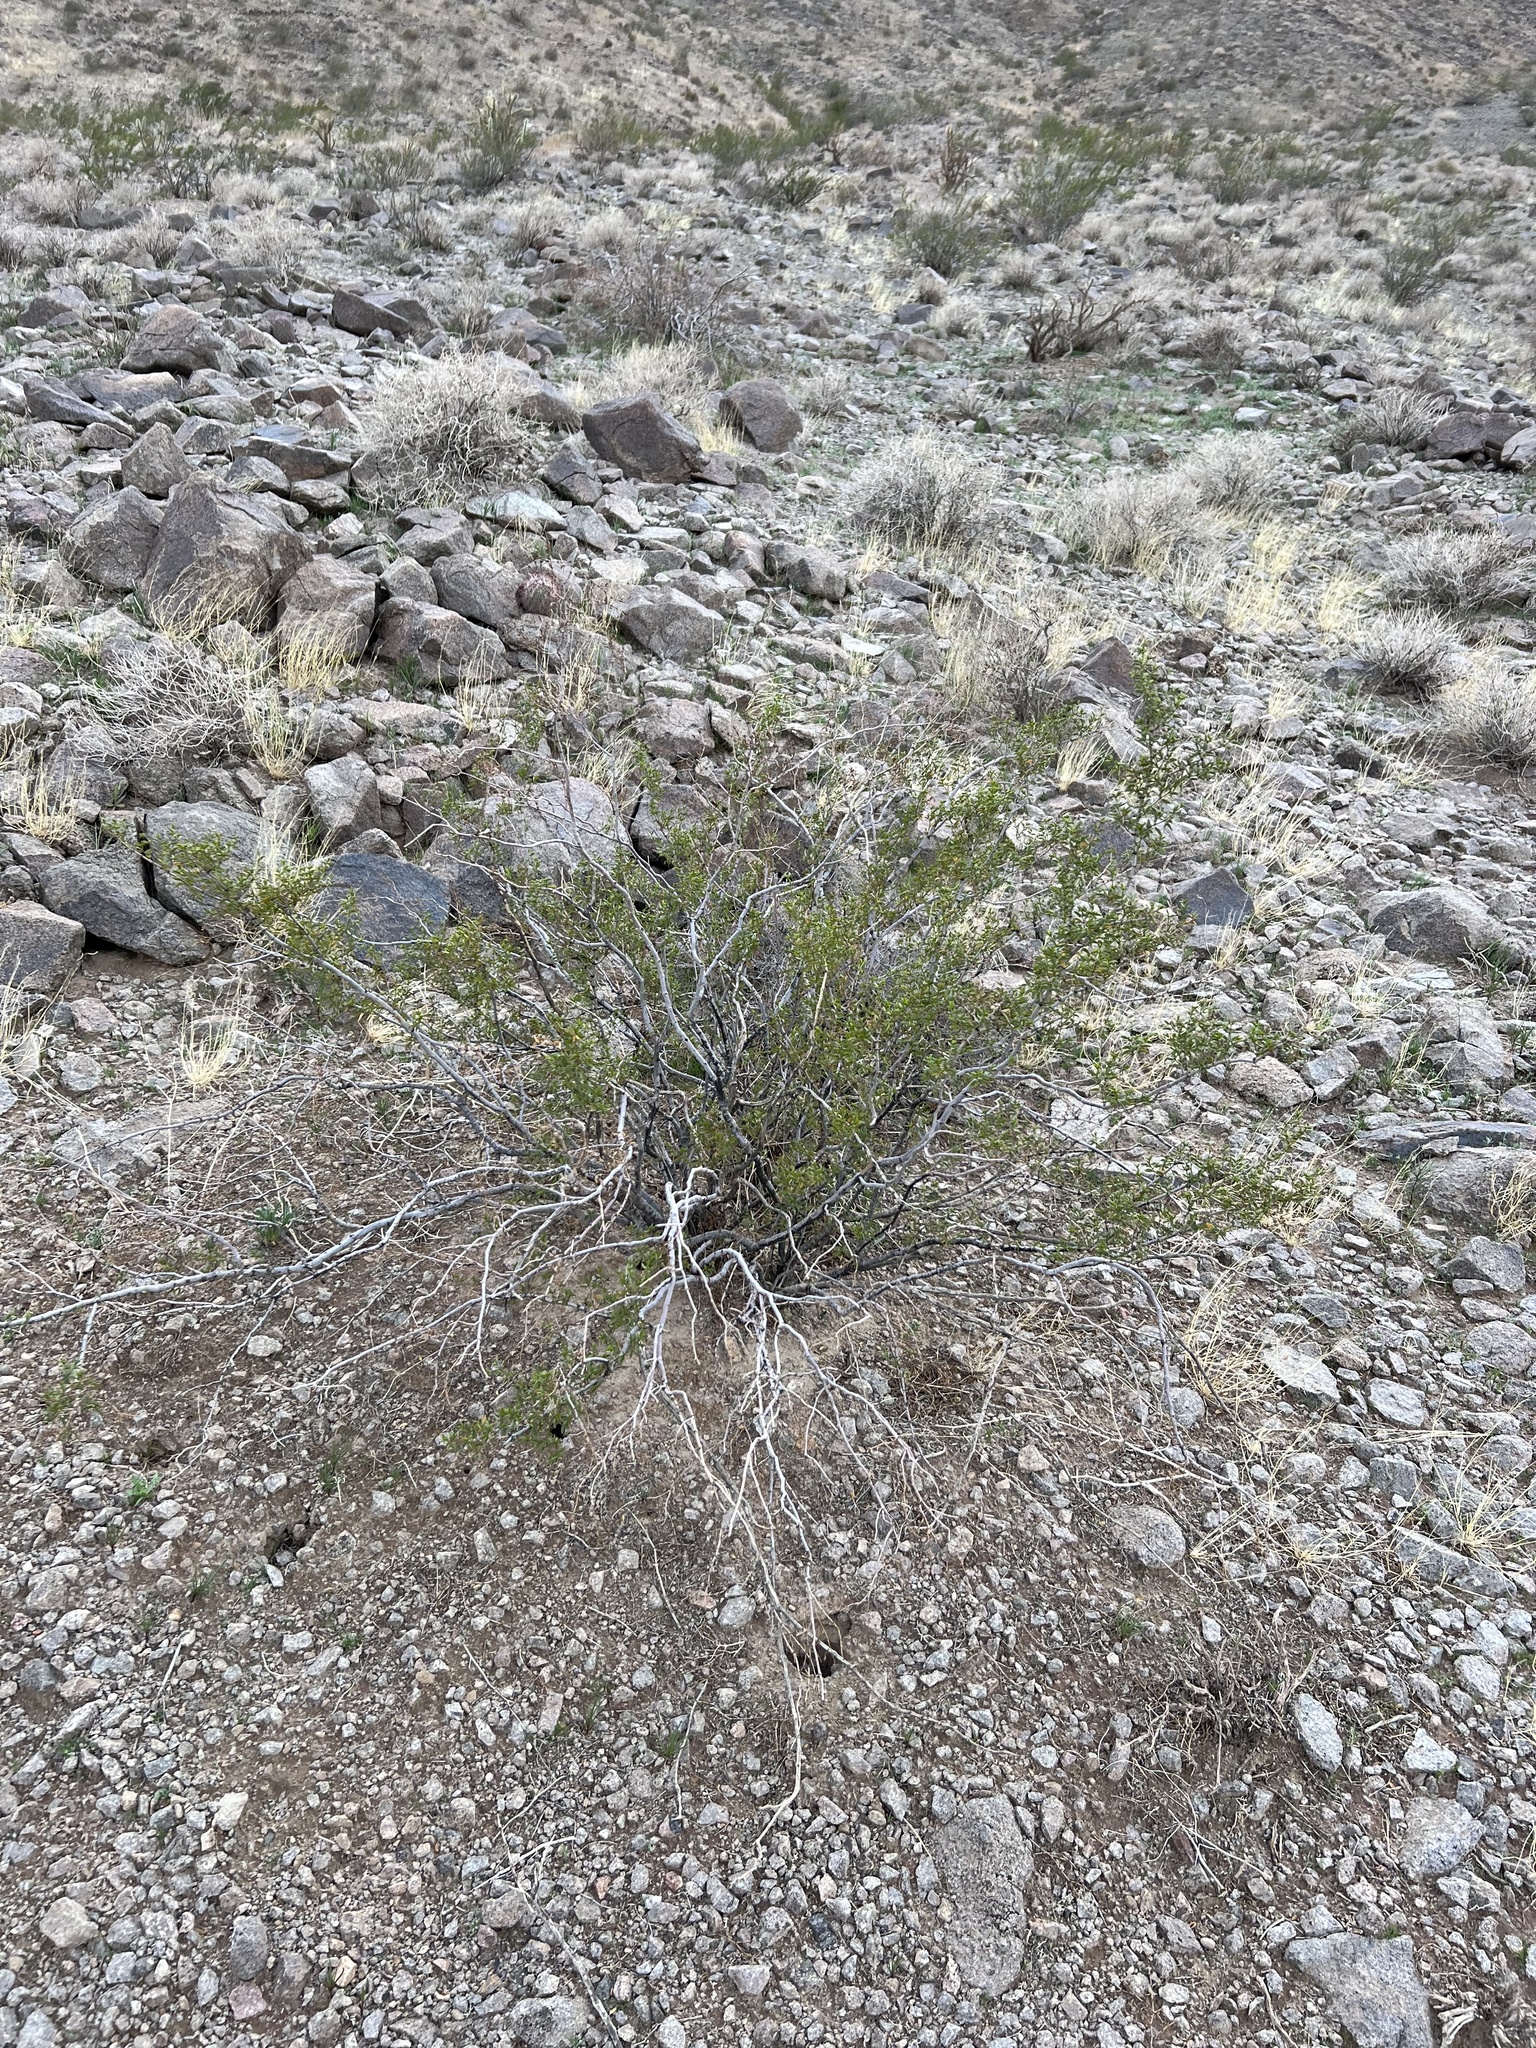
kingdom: Plantae
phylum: Tracheophyta
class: Magnoliopsida
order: Zygophyllales
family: Zygophyllaceae
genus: Larrea
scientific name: Larrea tridentata
